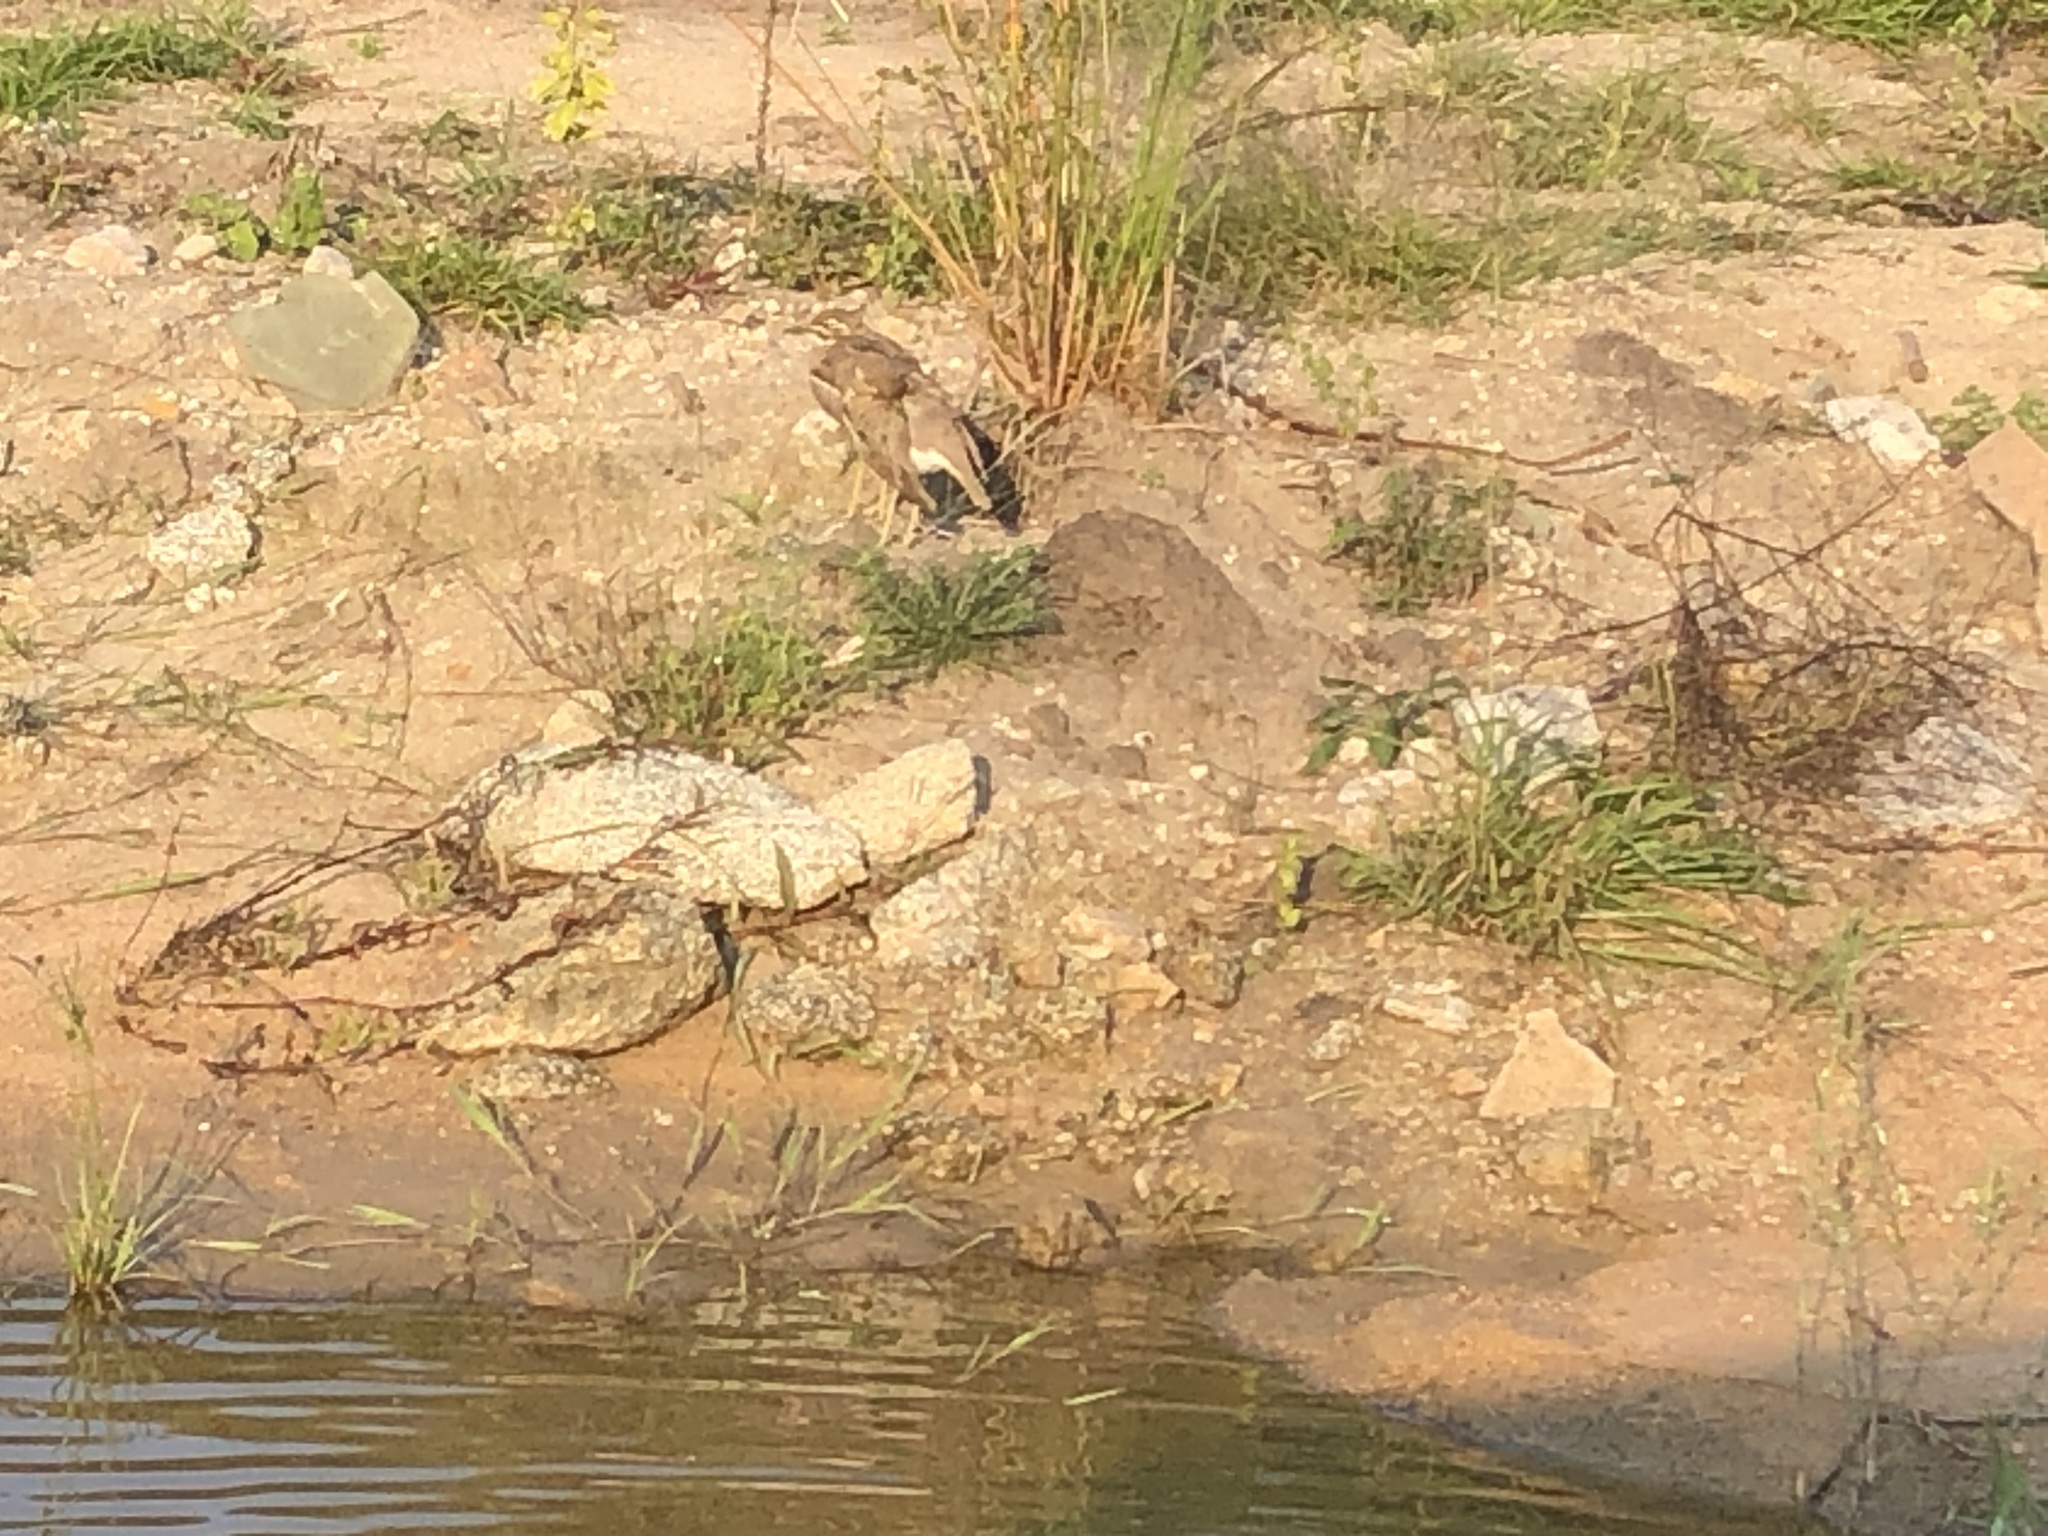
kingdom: Animalia
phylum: Chordata
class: Aves
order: Charadriiformes
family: Burhinidae
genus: Burhinus
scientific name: Burhinus vermiculatus
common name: Water thick-knee
